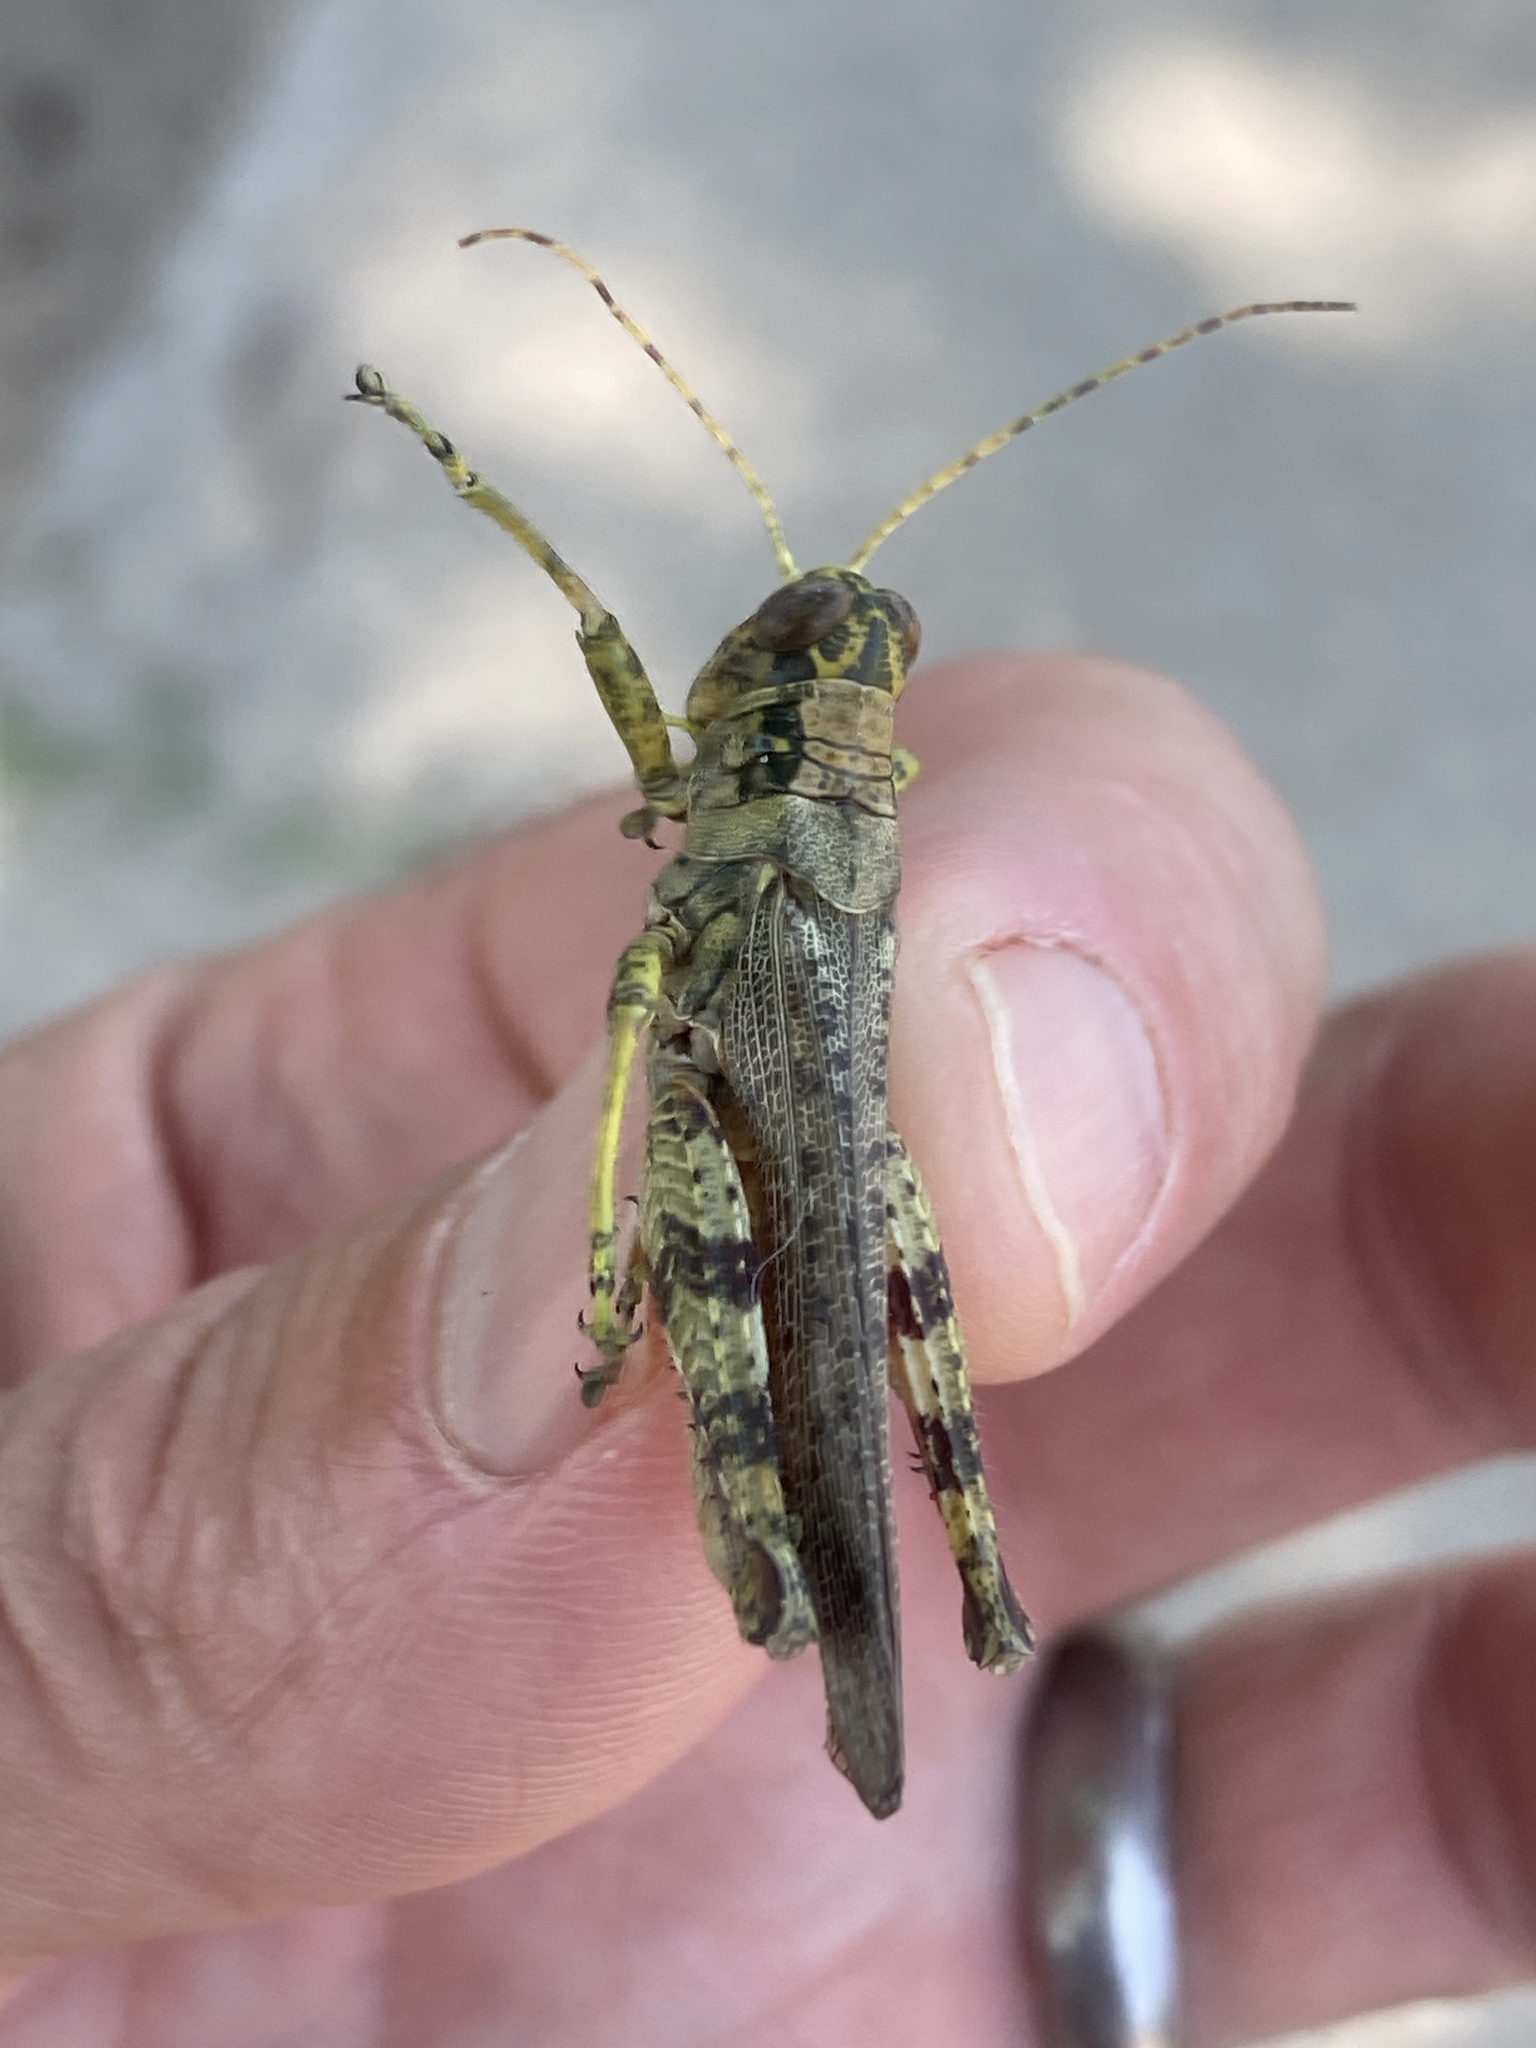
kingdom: Animalia
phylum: Arthropoda
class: Insecta
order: Orthoptera
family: Acrididae
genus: Melanoplus
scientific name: Melanoplus punctulatus
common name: Pine-tree spur-throat grasshopper
